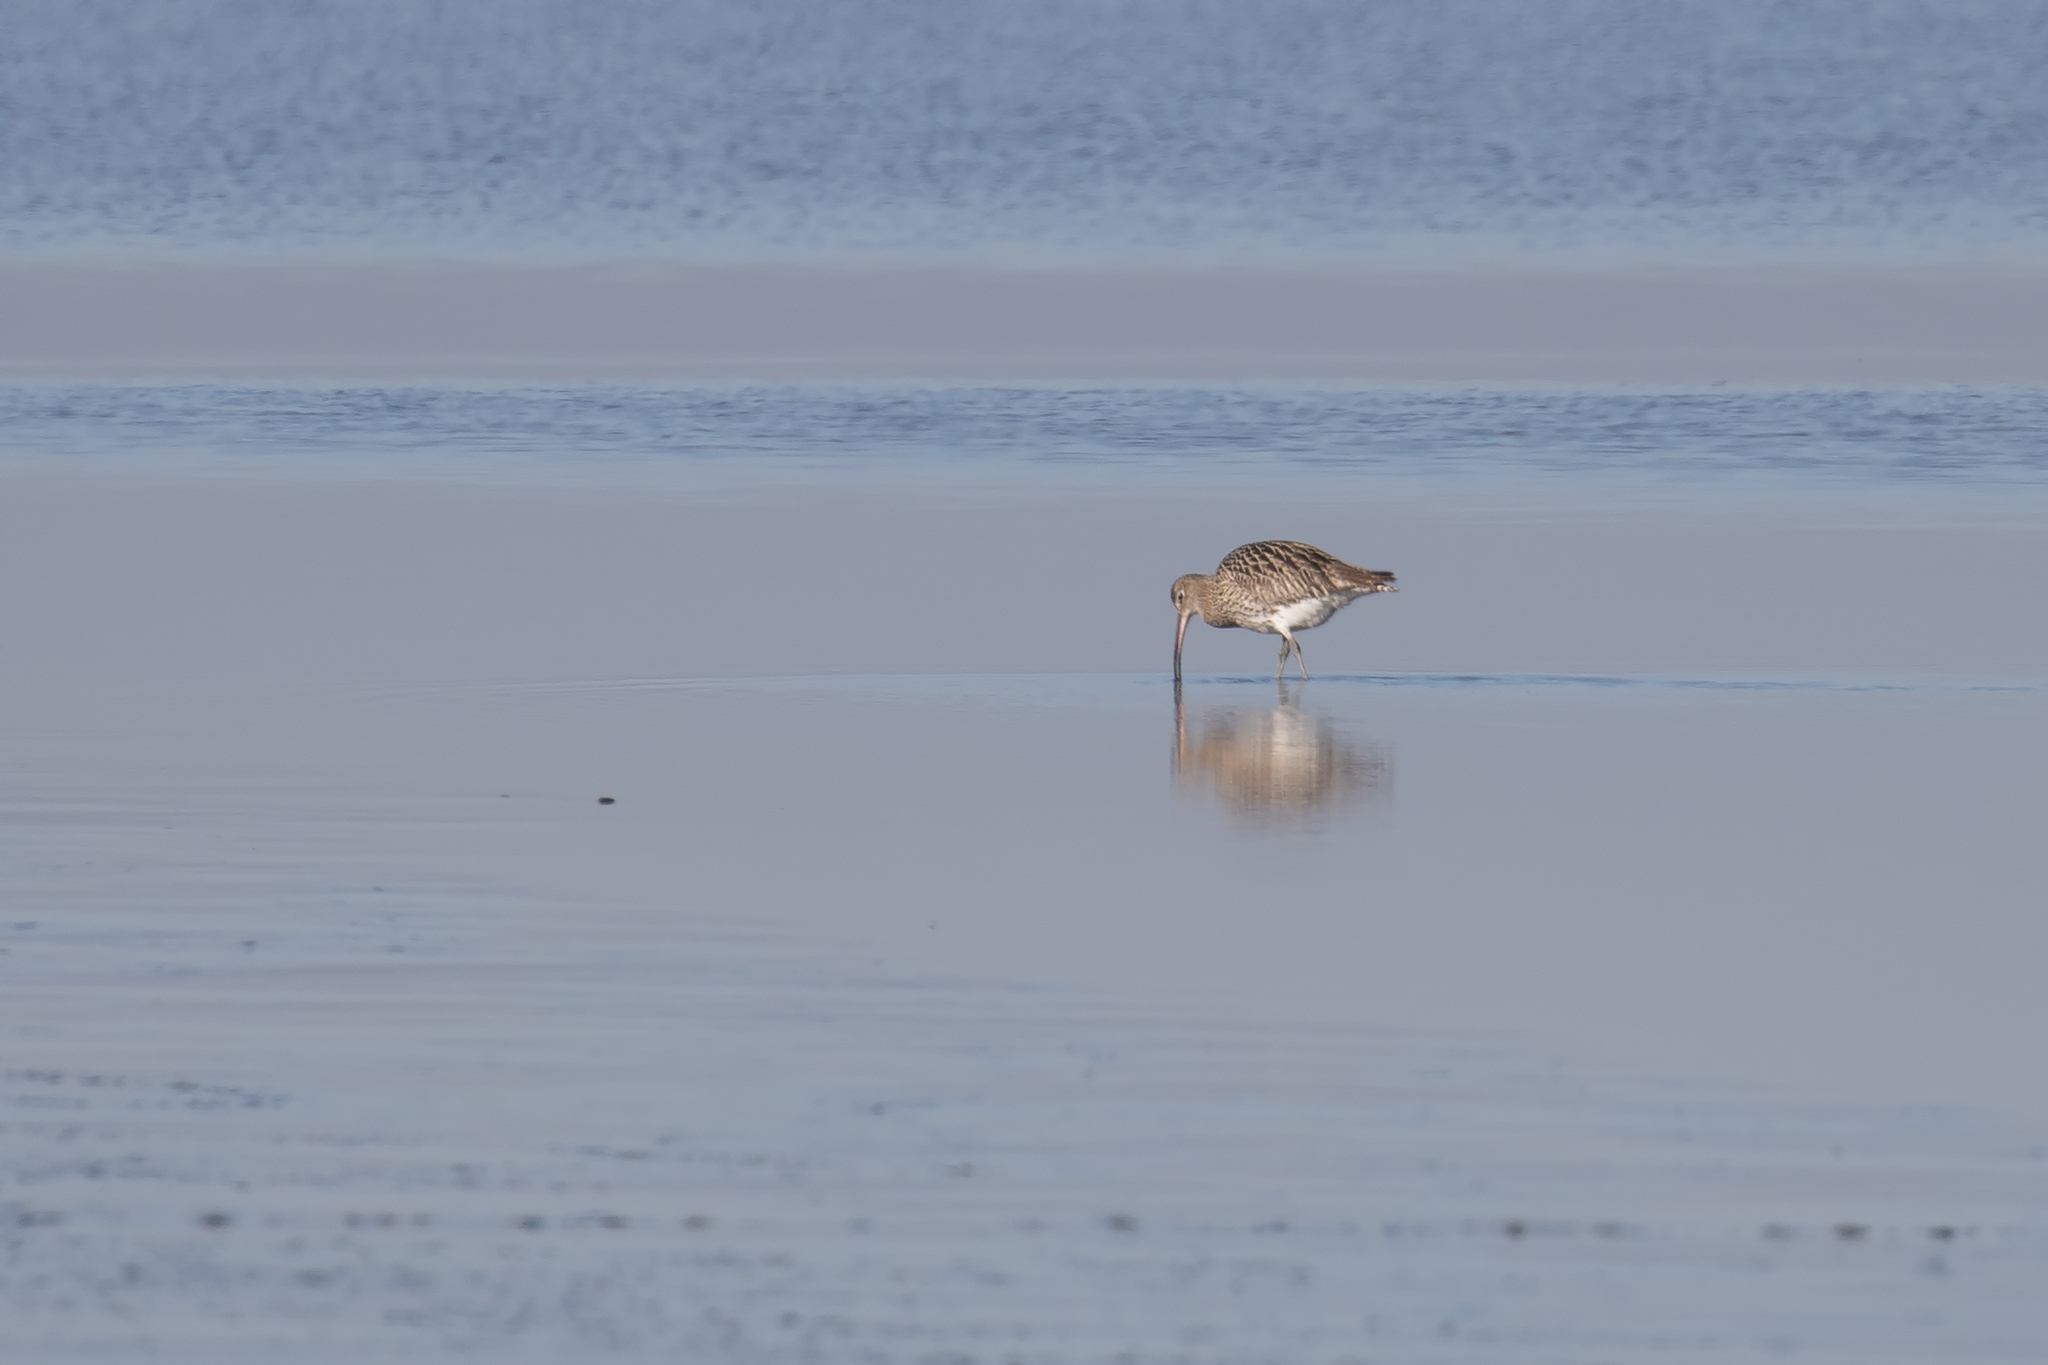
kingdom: Animalia
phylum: Chordata
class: Aves
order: Charadriiformes
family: Scolopacidae
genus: Numenius
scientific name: Numenius arquata
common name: Eurasian curlew
